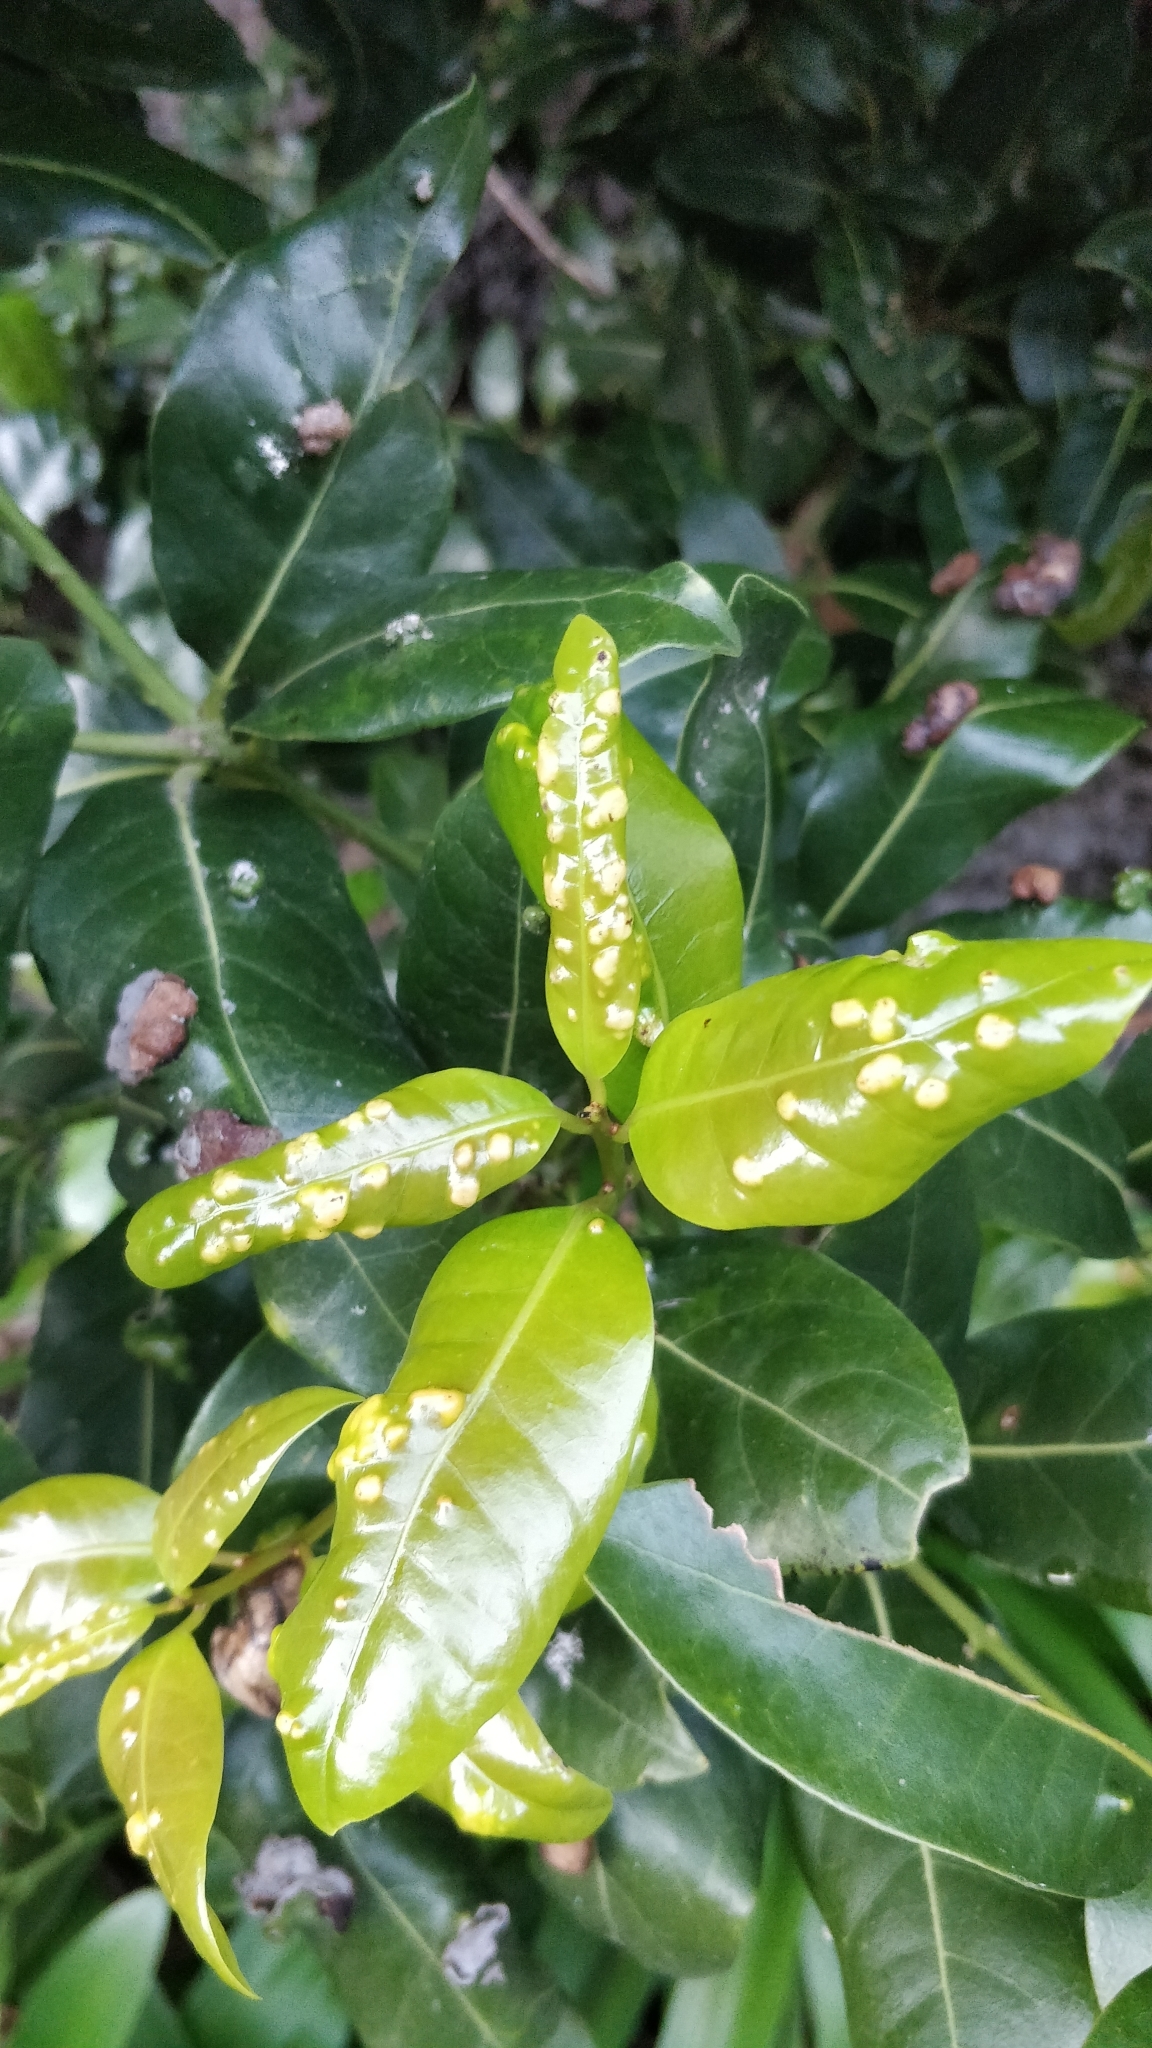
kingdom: Plantae
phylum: Tracheophyta
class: Magnoliopsida
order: Laurales
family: Lauraceae
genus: Apollonias
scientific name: Apollonias barbujana
